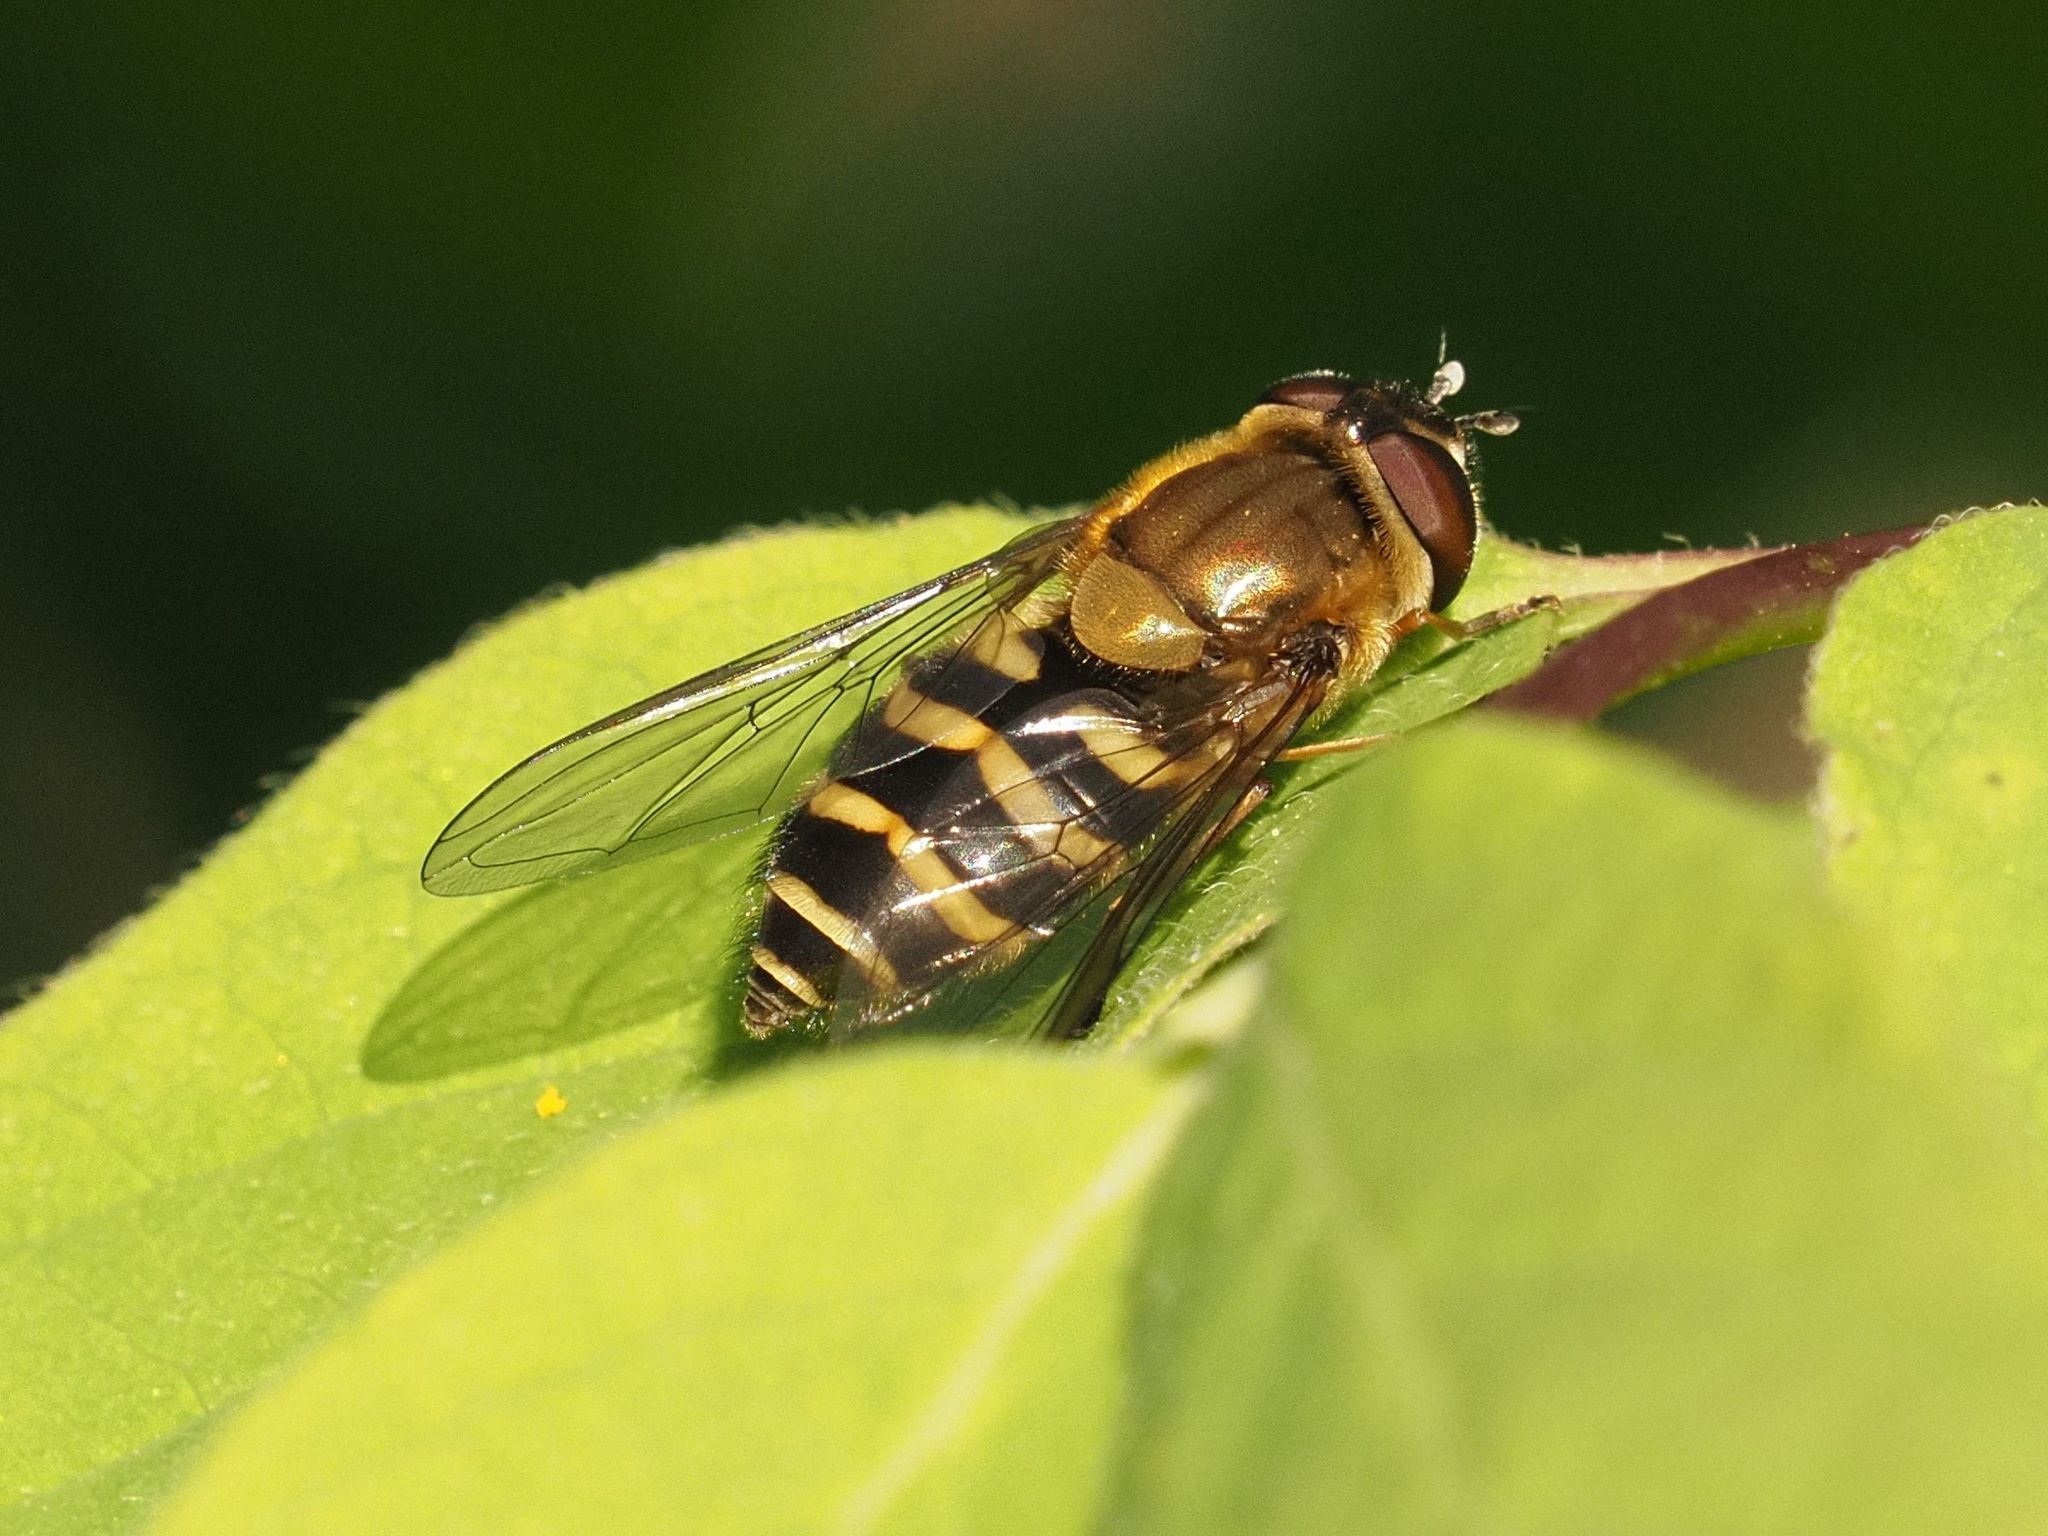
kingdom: Animalia
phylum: Arthropoda
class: Insecta
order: Diptera
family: Syrphidae
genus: Syrphus
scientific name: Syrphus torvus
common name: Hairy-eyed flower fly
